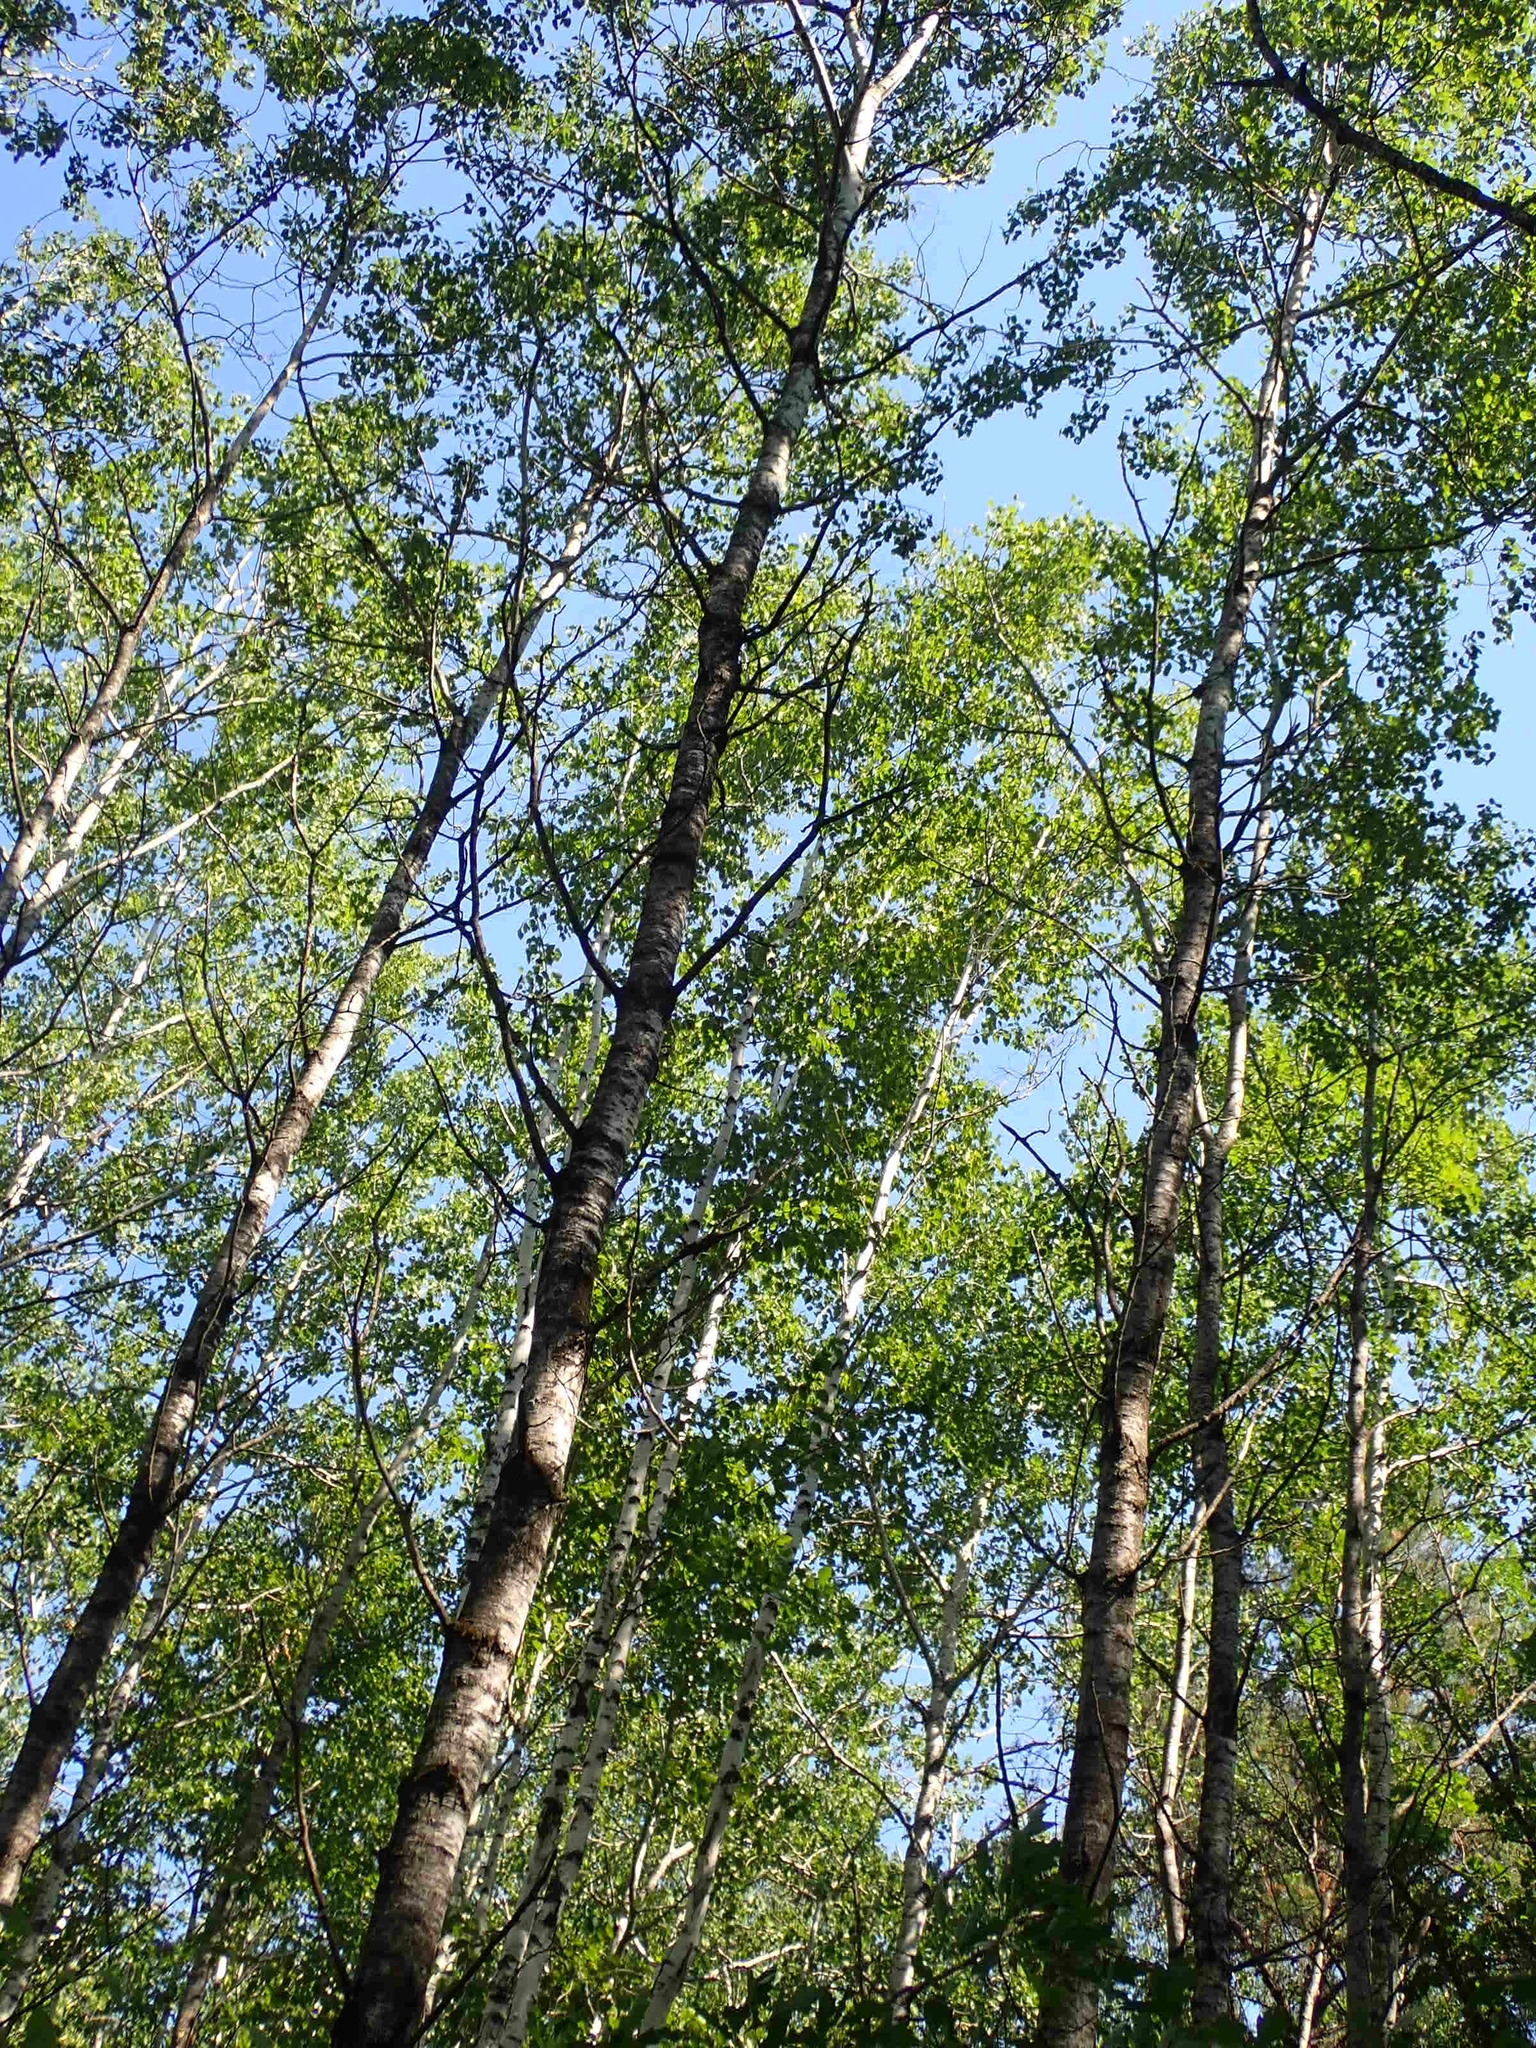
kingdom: Plantae
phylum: Tracheophyta
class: Magnoliopsida
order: Malpighiales
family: Salicaceae
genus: Populus
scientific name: Populus tremuloides
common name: Quaking aspen
